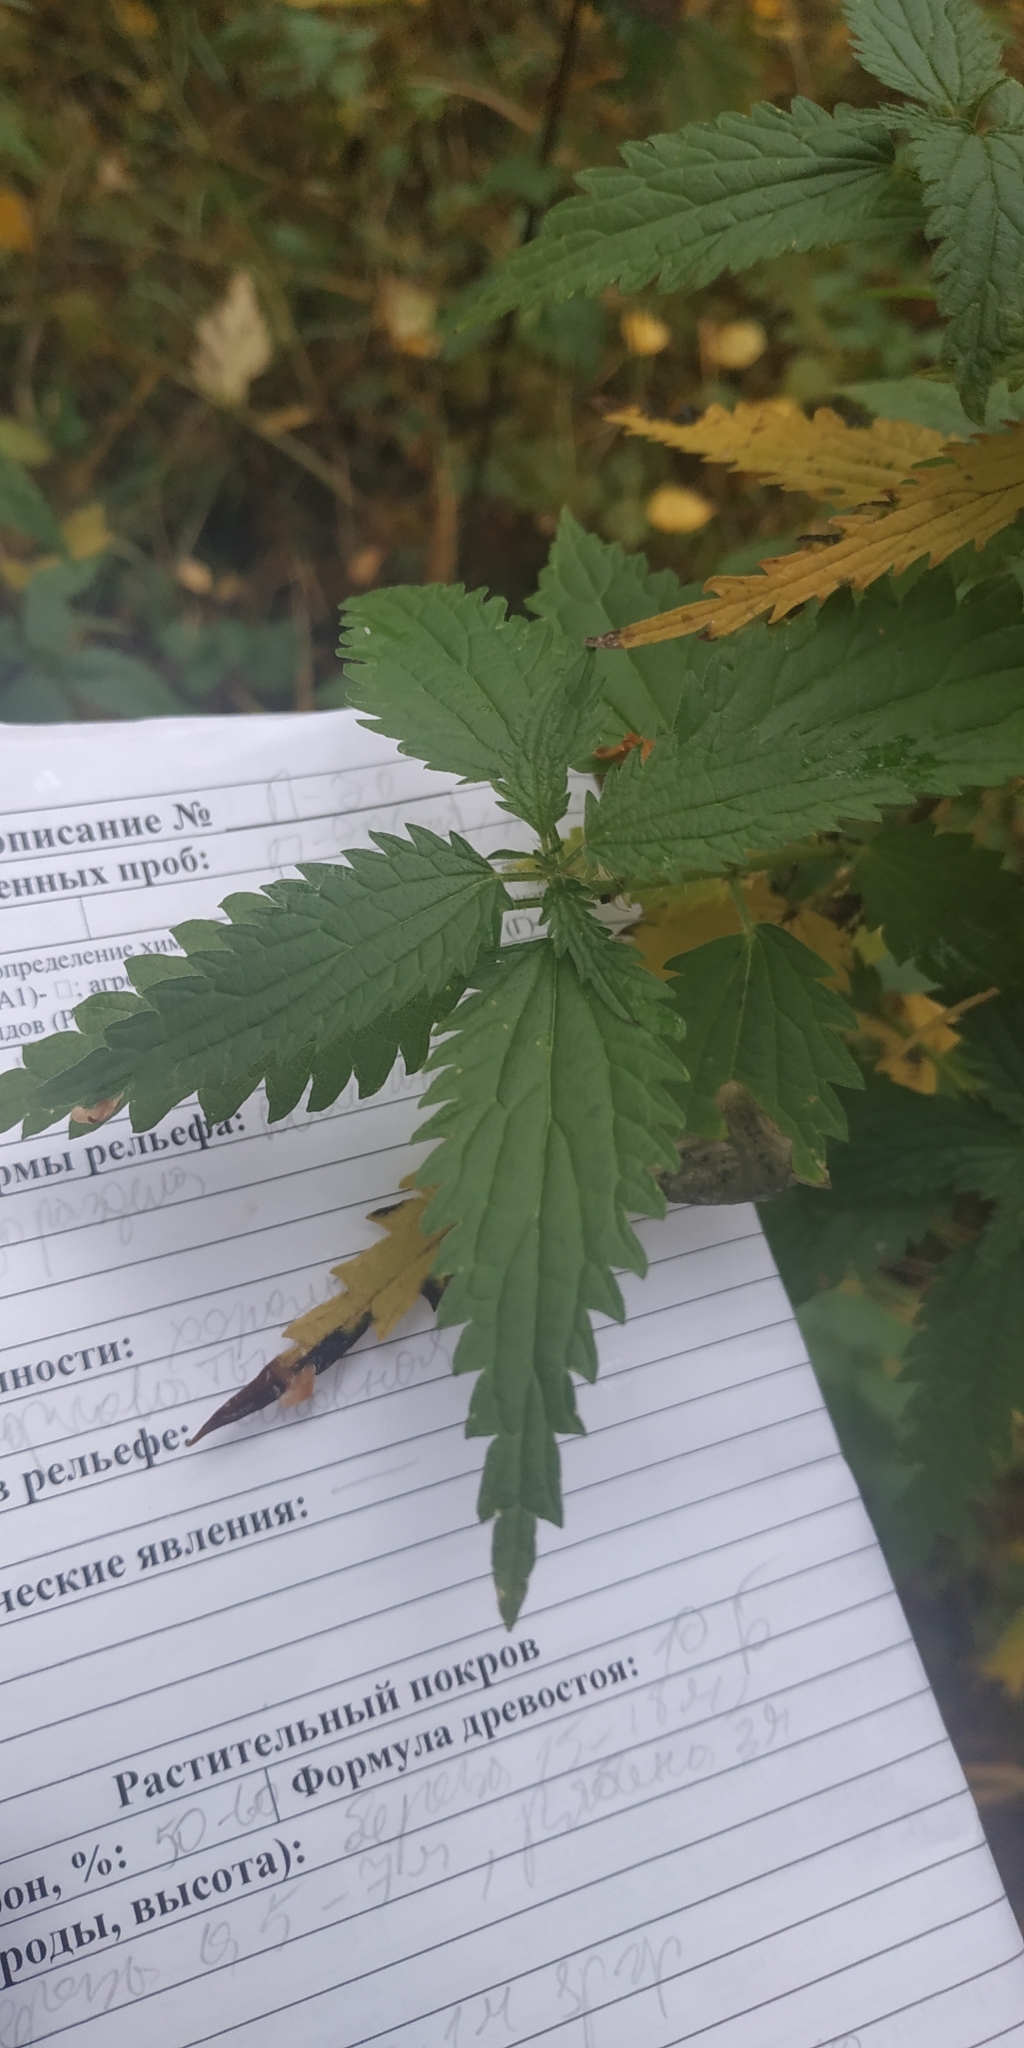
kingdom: Plantae
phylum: Tracheophyta
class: Magnoliopsida
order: Rosales
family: Urticaceae
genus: Urtica
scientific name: Urtica galeopsifolia
